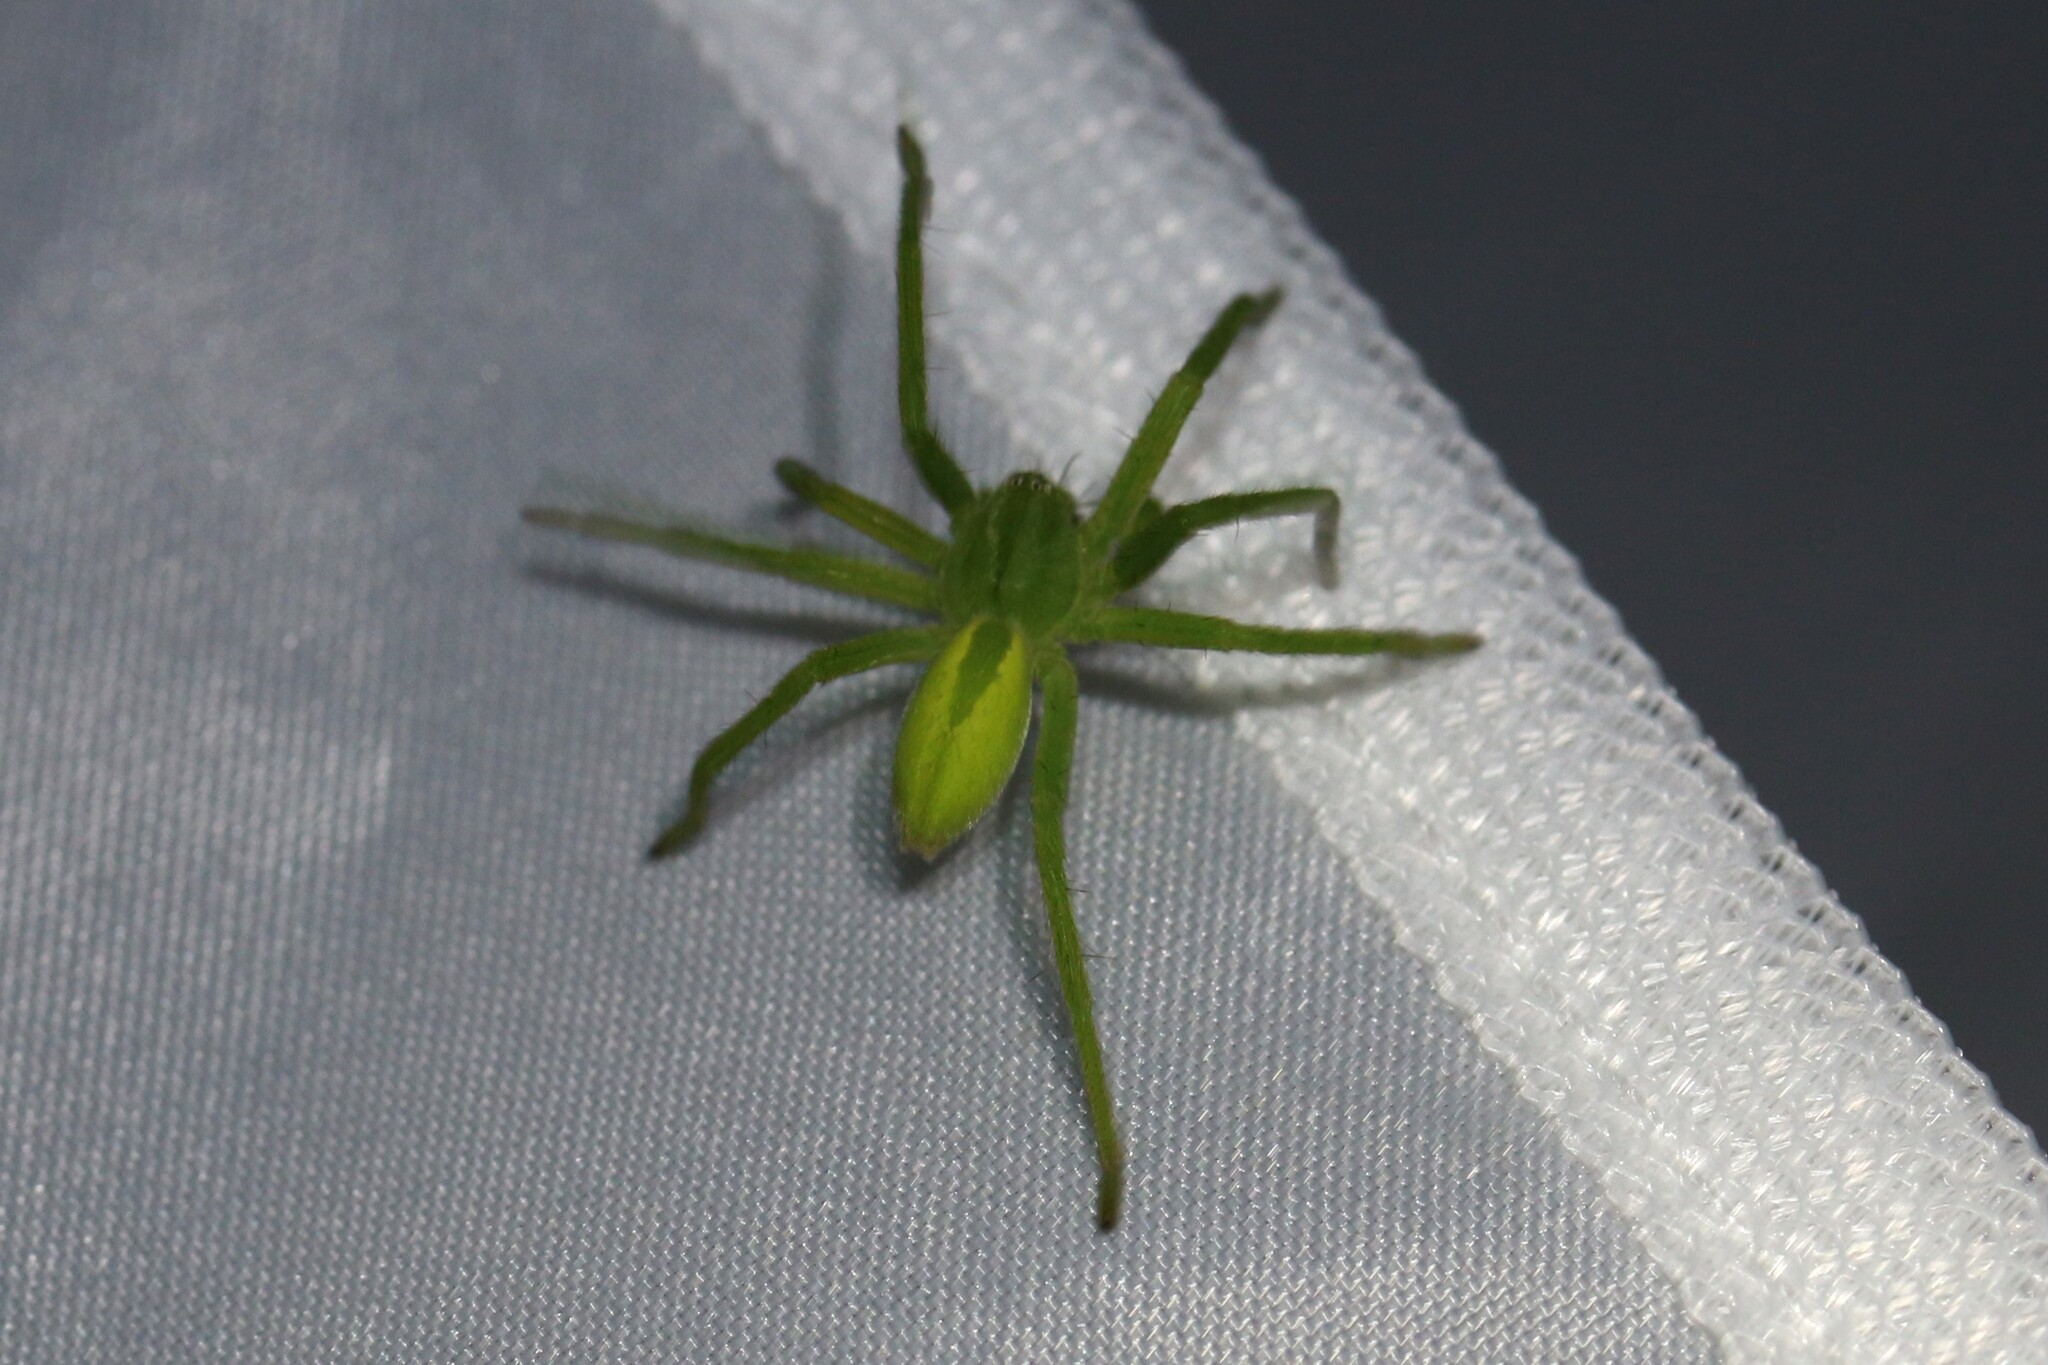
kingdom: Animalia
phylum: Arthropoda
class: Arachnida
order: Araneae
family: Sparassidae
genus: Micrommata
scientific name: Micrommata virescens
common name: Green spider
